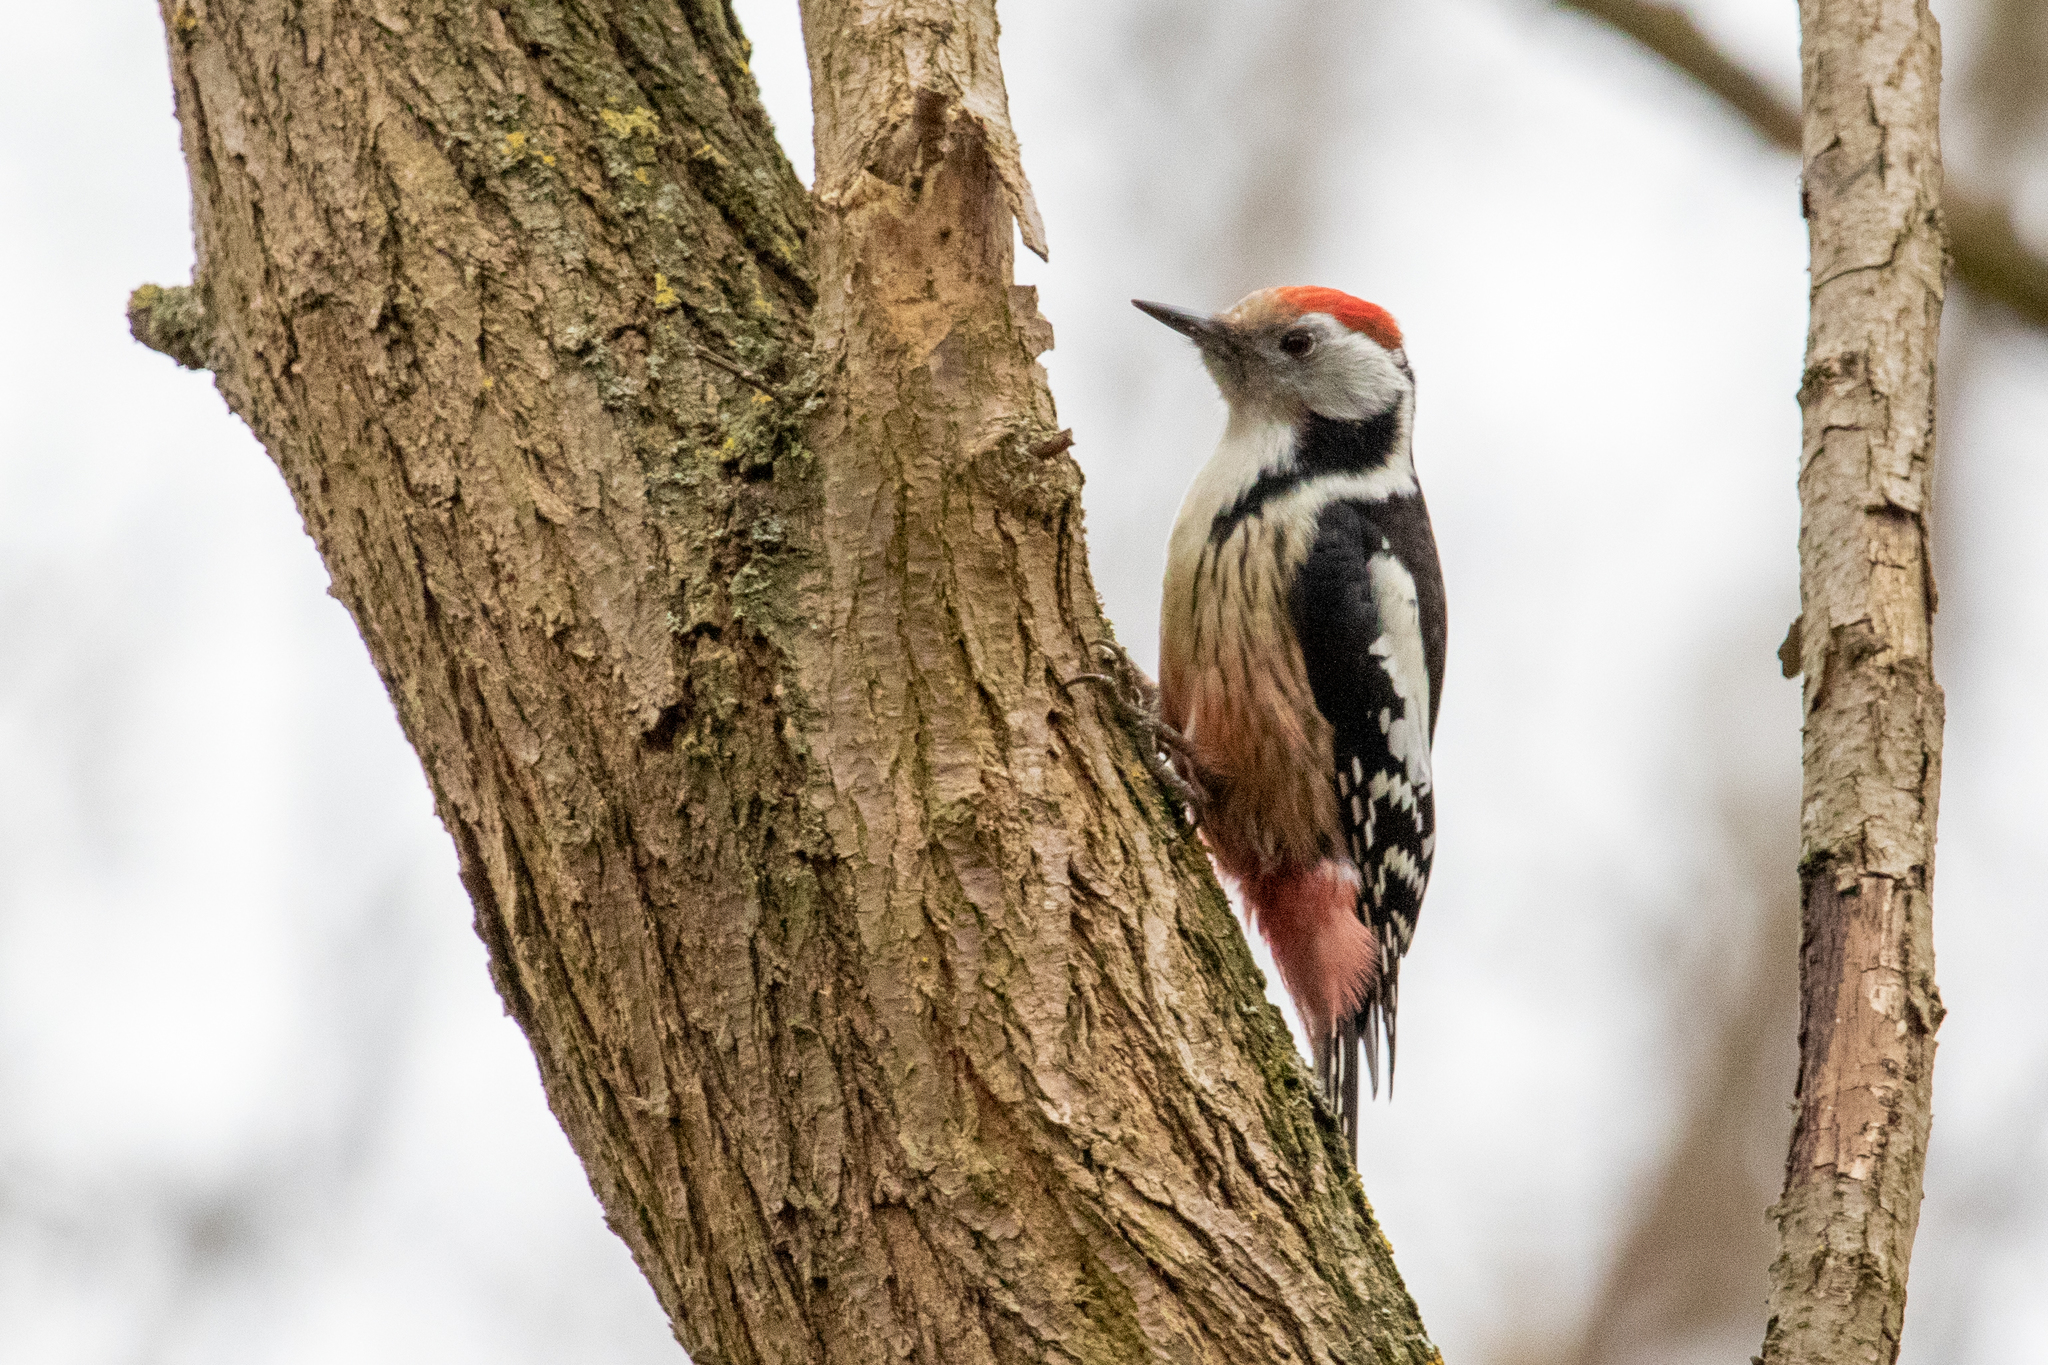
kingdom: Animalia
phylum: Chordata
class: Aves
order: Piciformes
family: Picidae
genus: Dendrocoptes
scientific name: Dendrocoptes medius
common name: Middle spotted woodpecker
